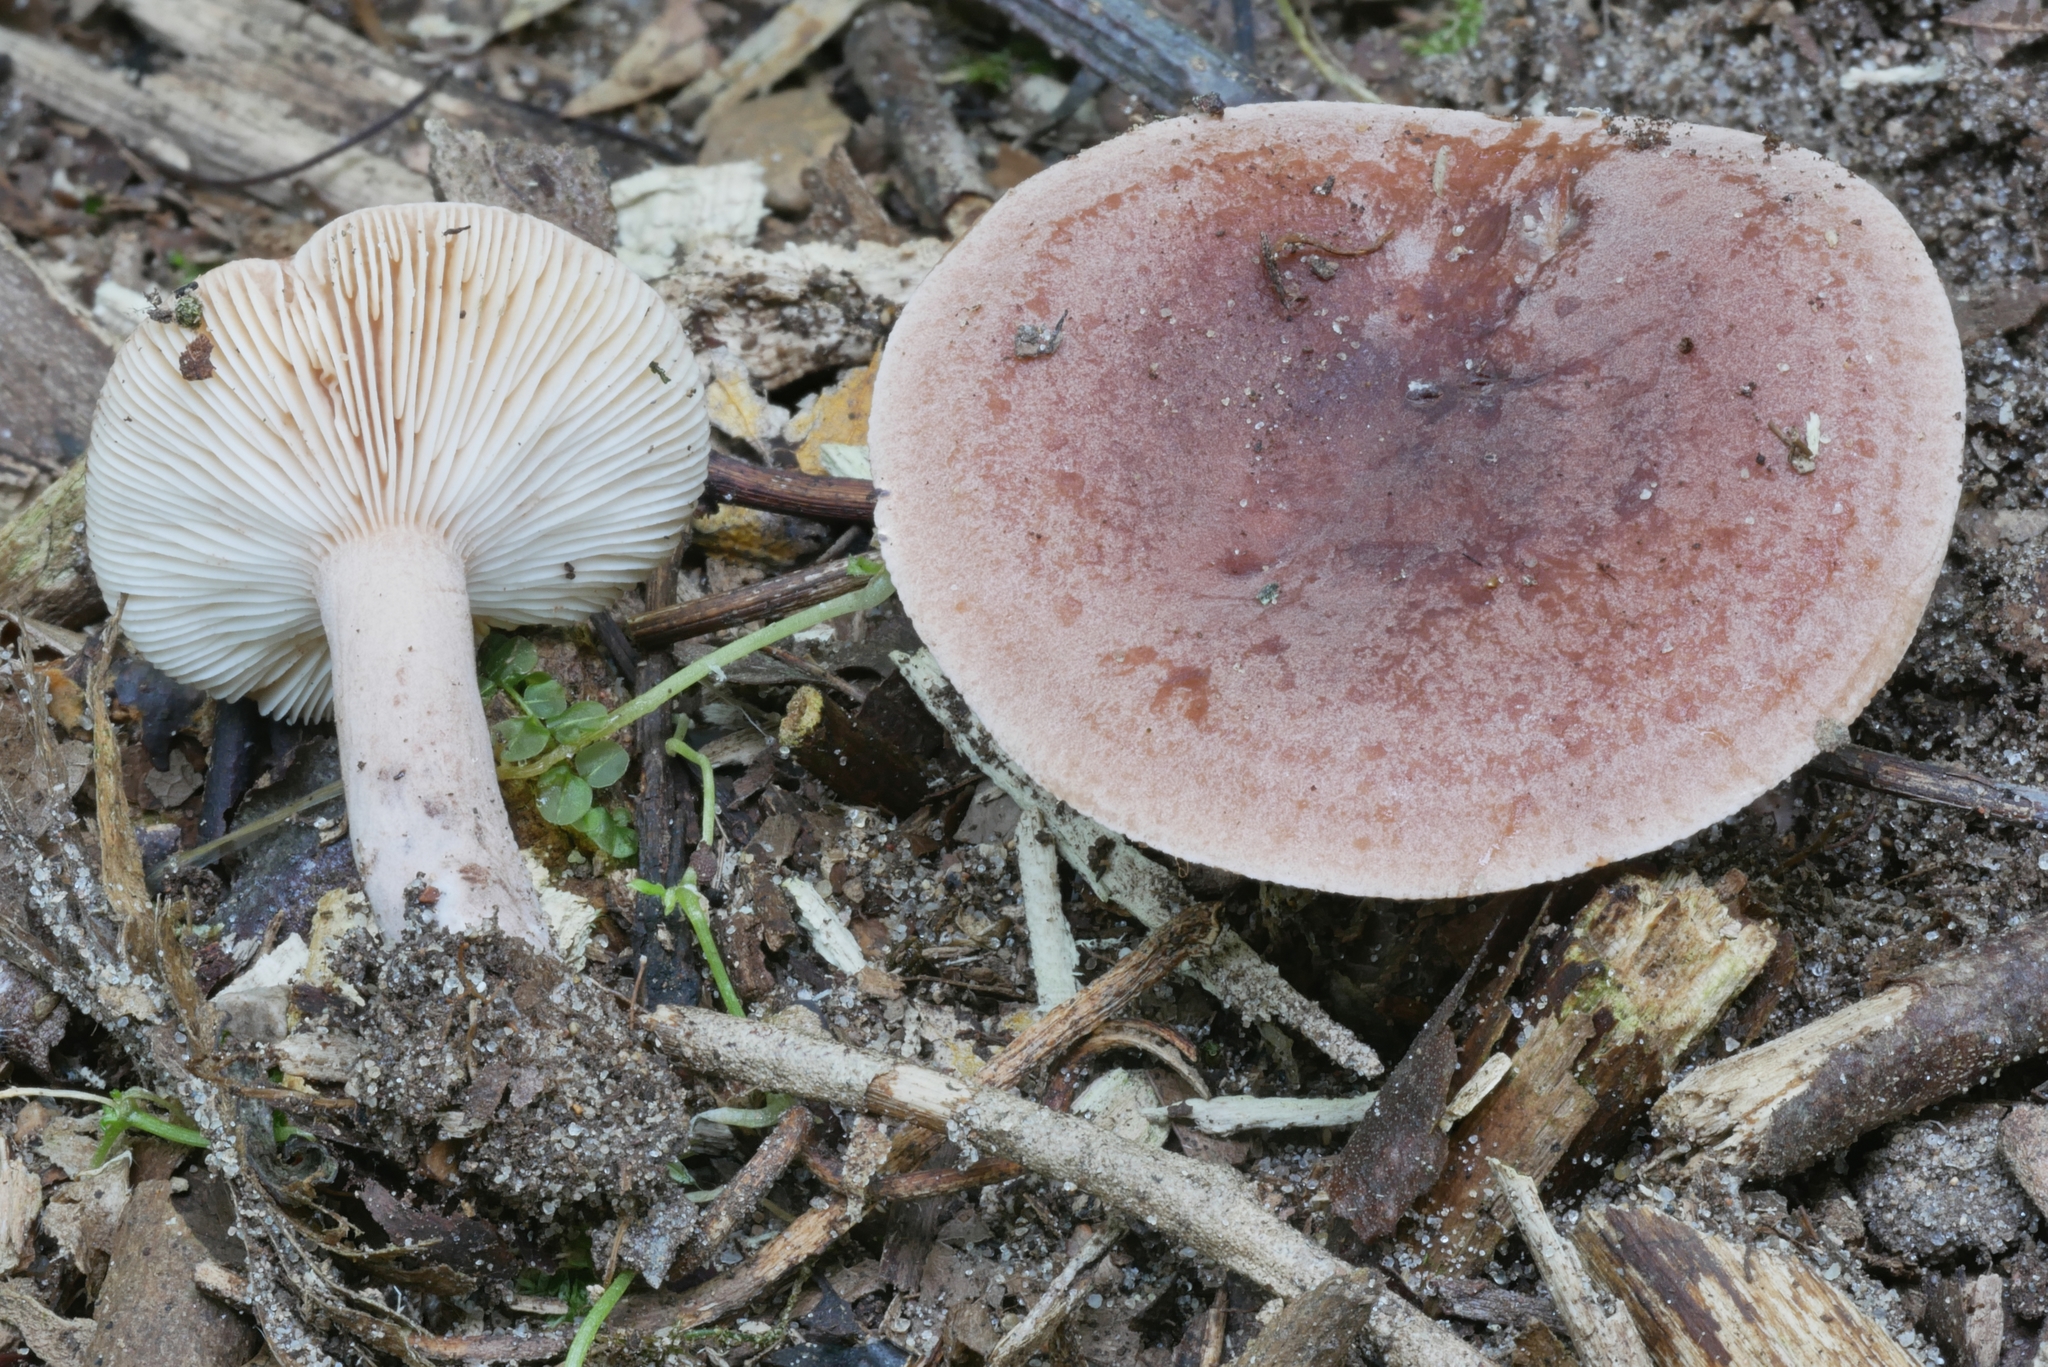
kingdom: Fungi
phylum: Basidiomycota
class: Agaricomycetes
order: Russulales
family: Russulaceae
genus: Lactarius
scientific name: Lactarius mutabilis
